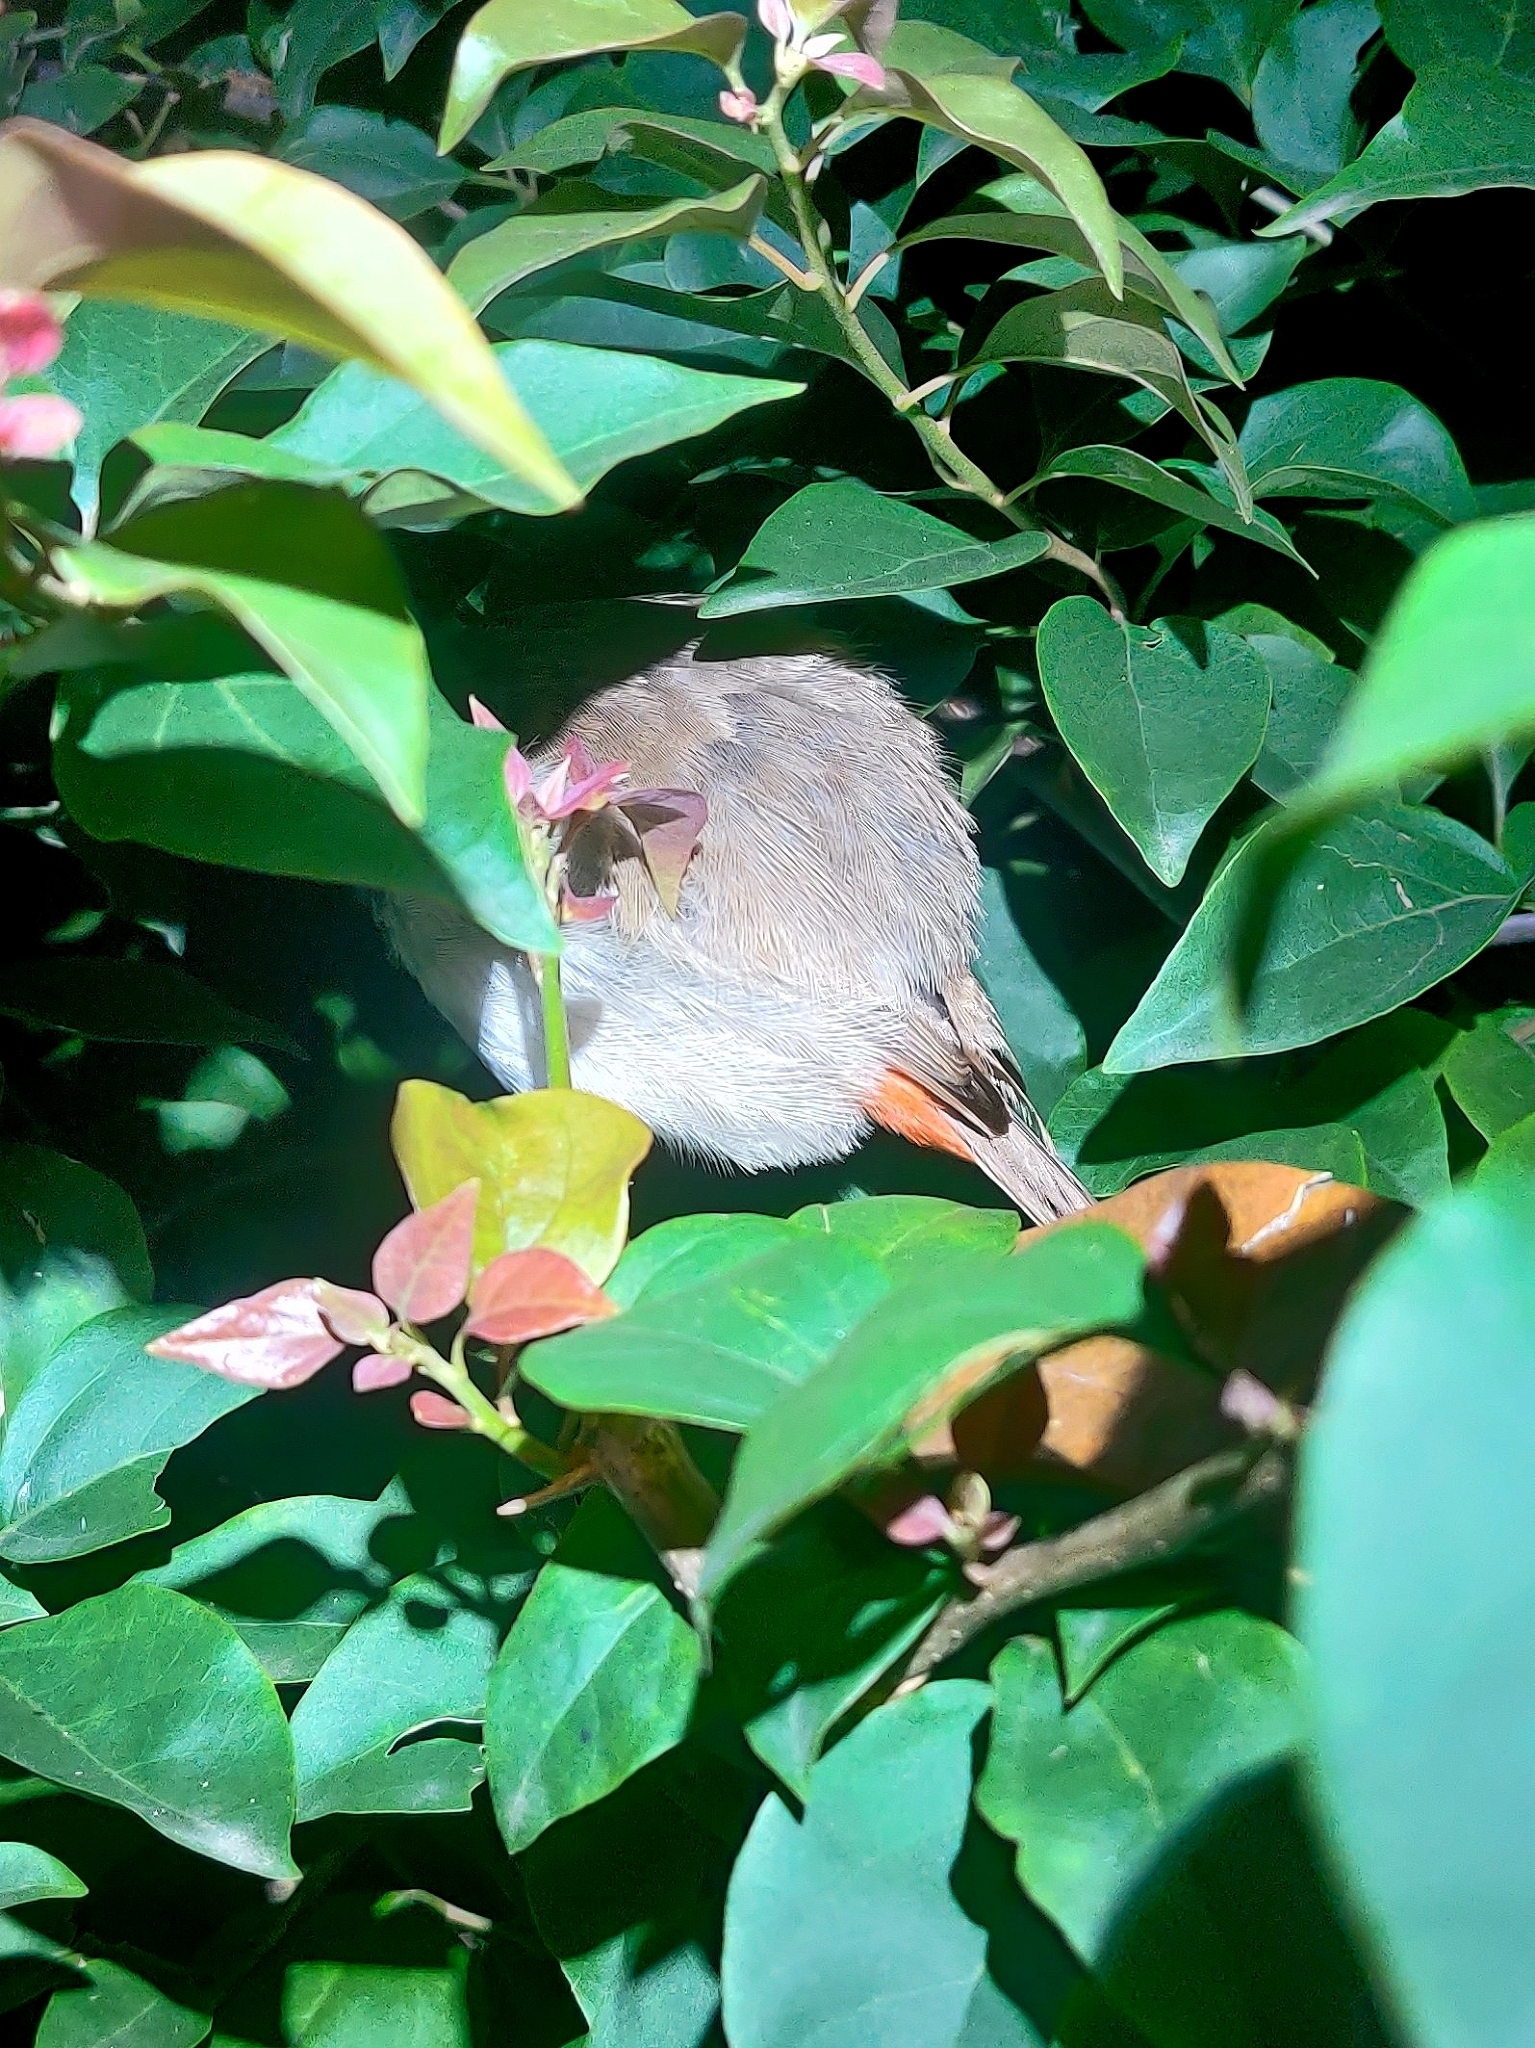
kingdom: Animalia
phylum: Chordata
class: Aves
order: Passeriformes
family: Pycnonotidae
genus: Pycnonotus
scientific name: Pycnonotus jocosus
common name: Red-whiskered bulbul
